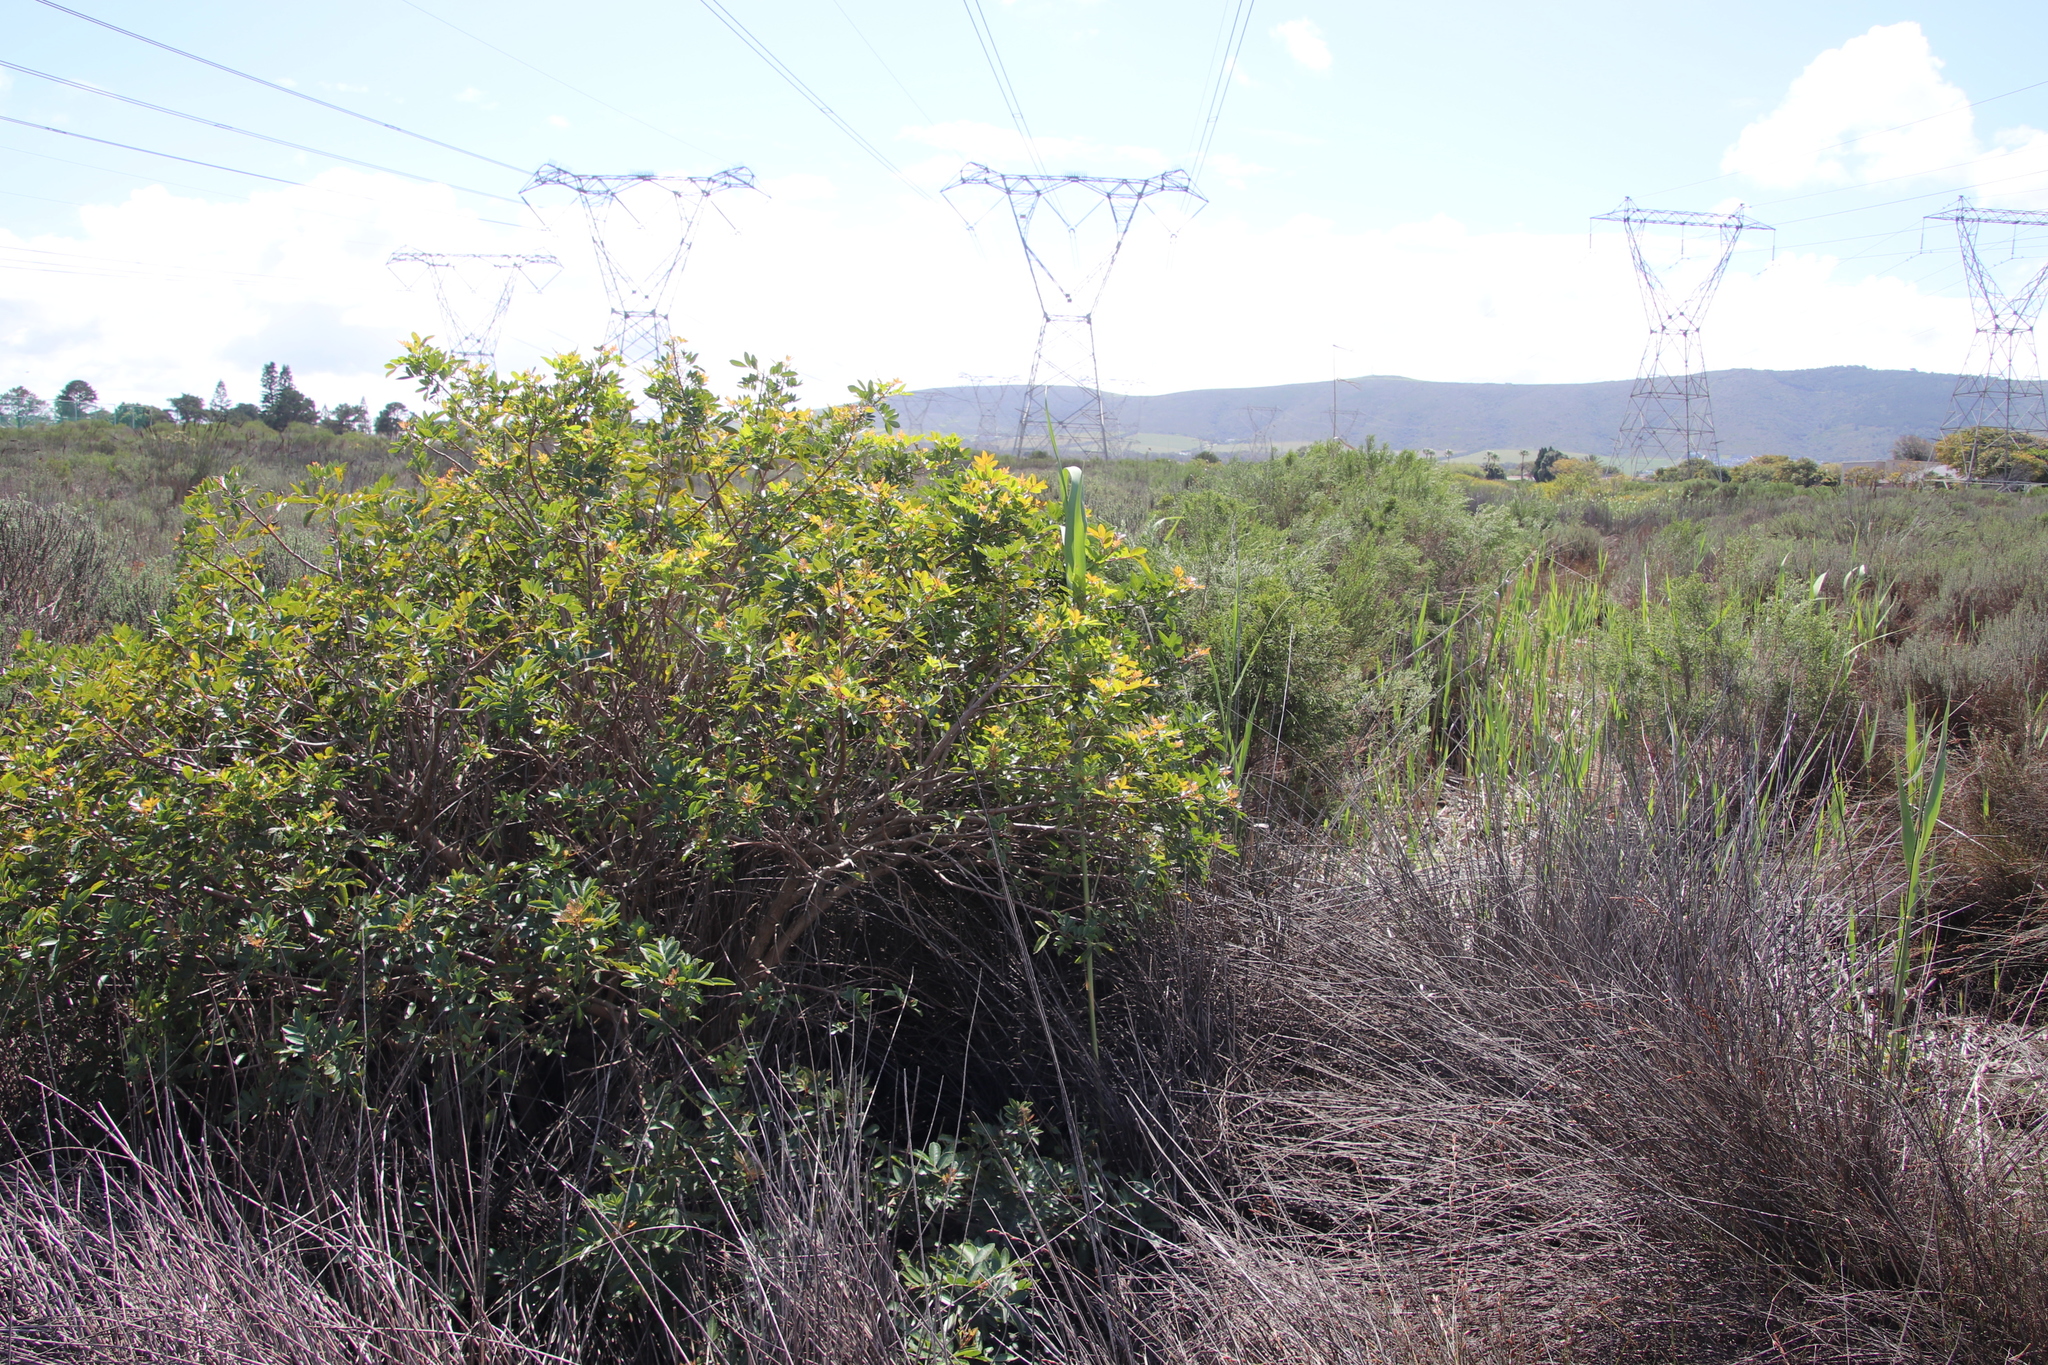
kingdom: Plantae
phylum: Tracheophyta
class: Magnoliopsida
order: Sapindales
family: Anacardiaceae
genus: Schinus
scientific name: Schinus terebinthifolia
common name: Brazilian peppertree
